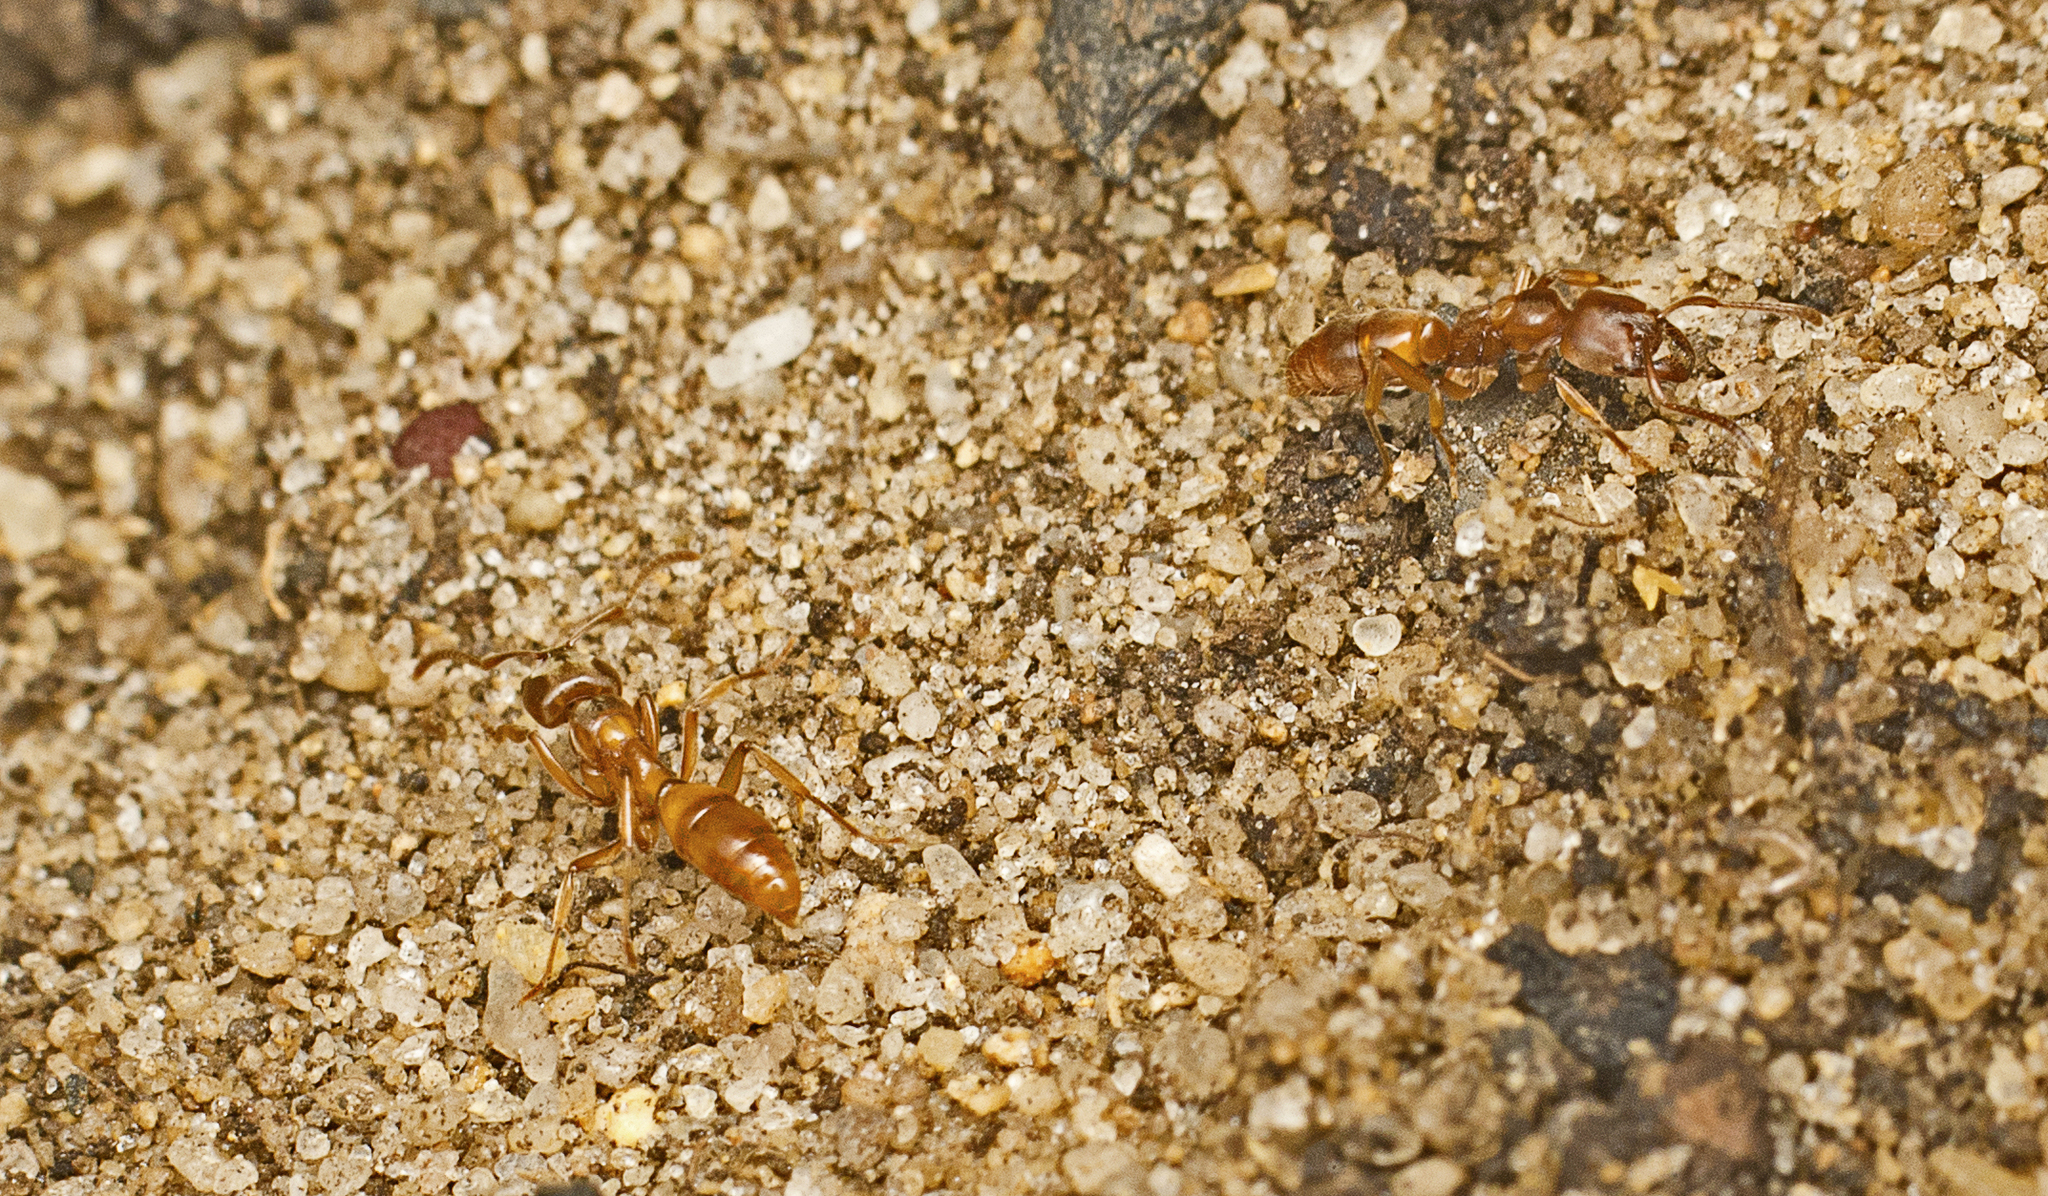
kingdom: Animalia
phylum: Arthropoda
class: Insecta
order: Hymenoptera
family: Formicidae
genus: Brachyponera
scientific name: Brachyponera
